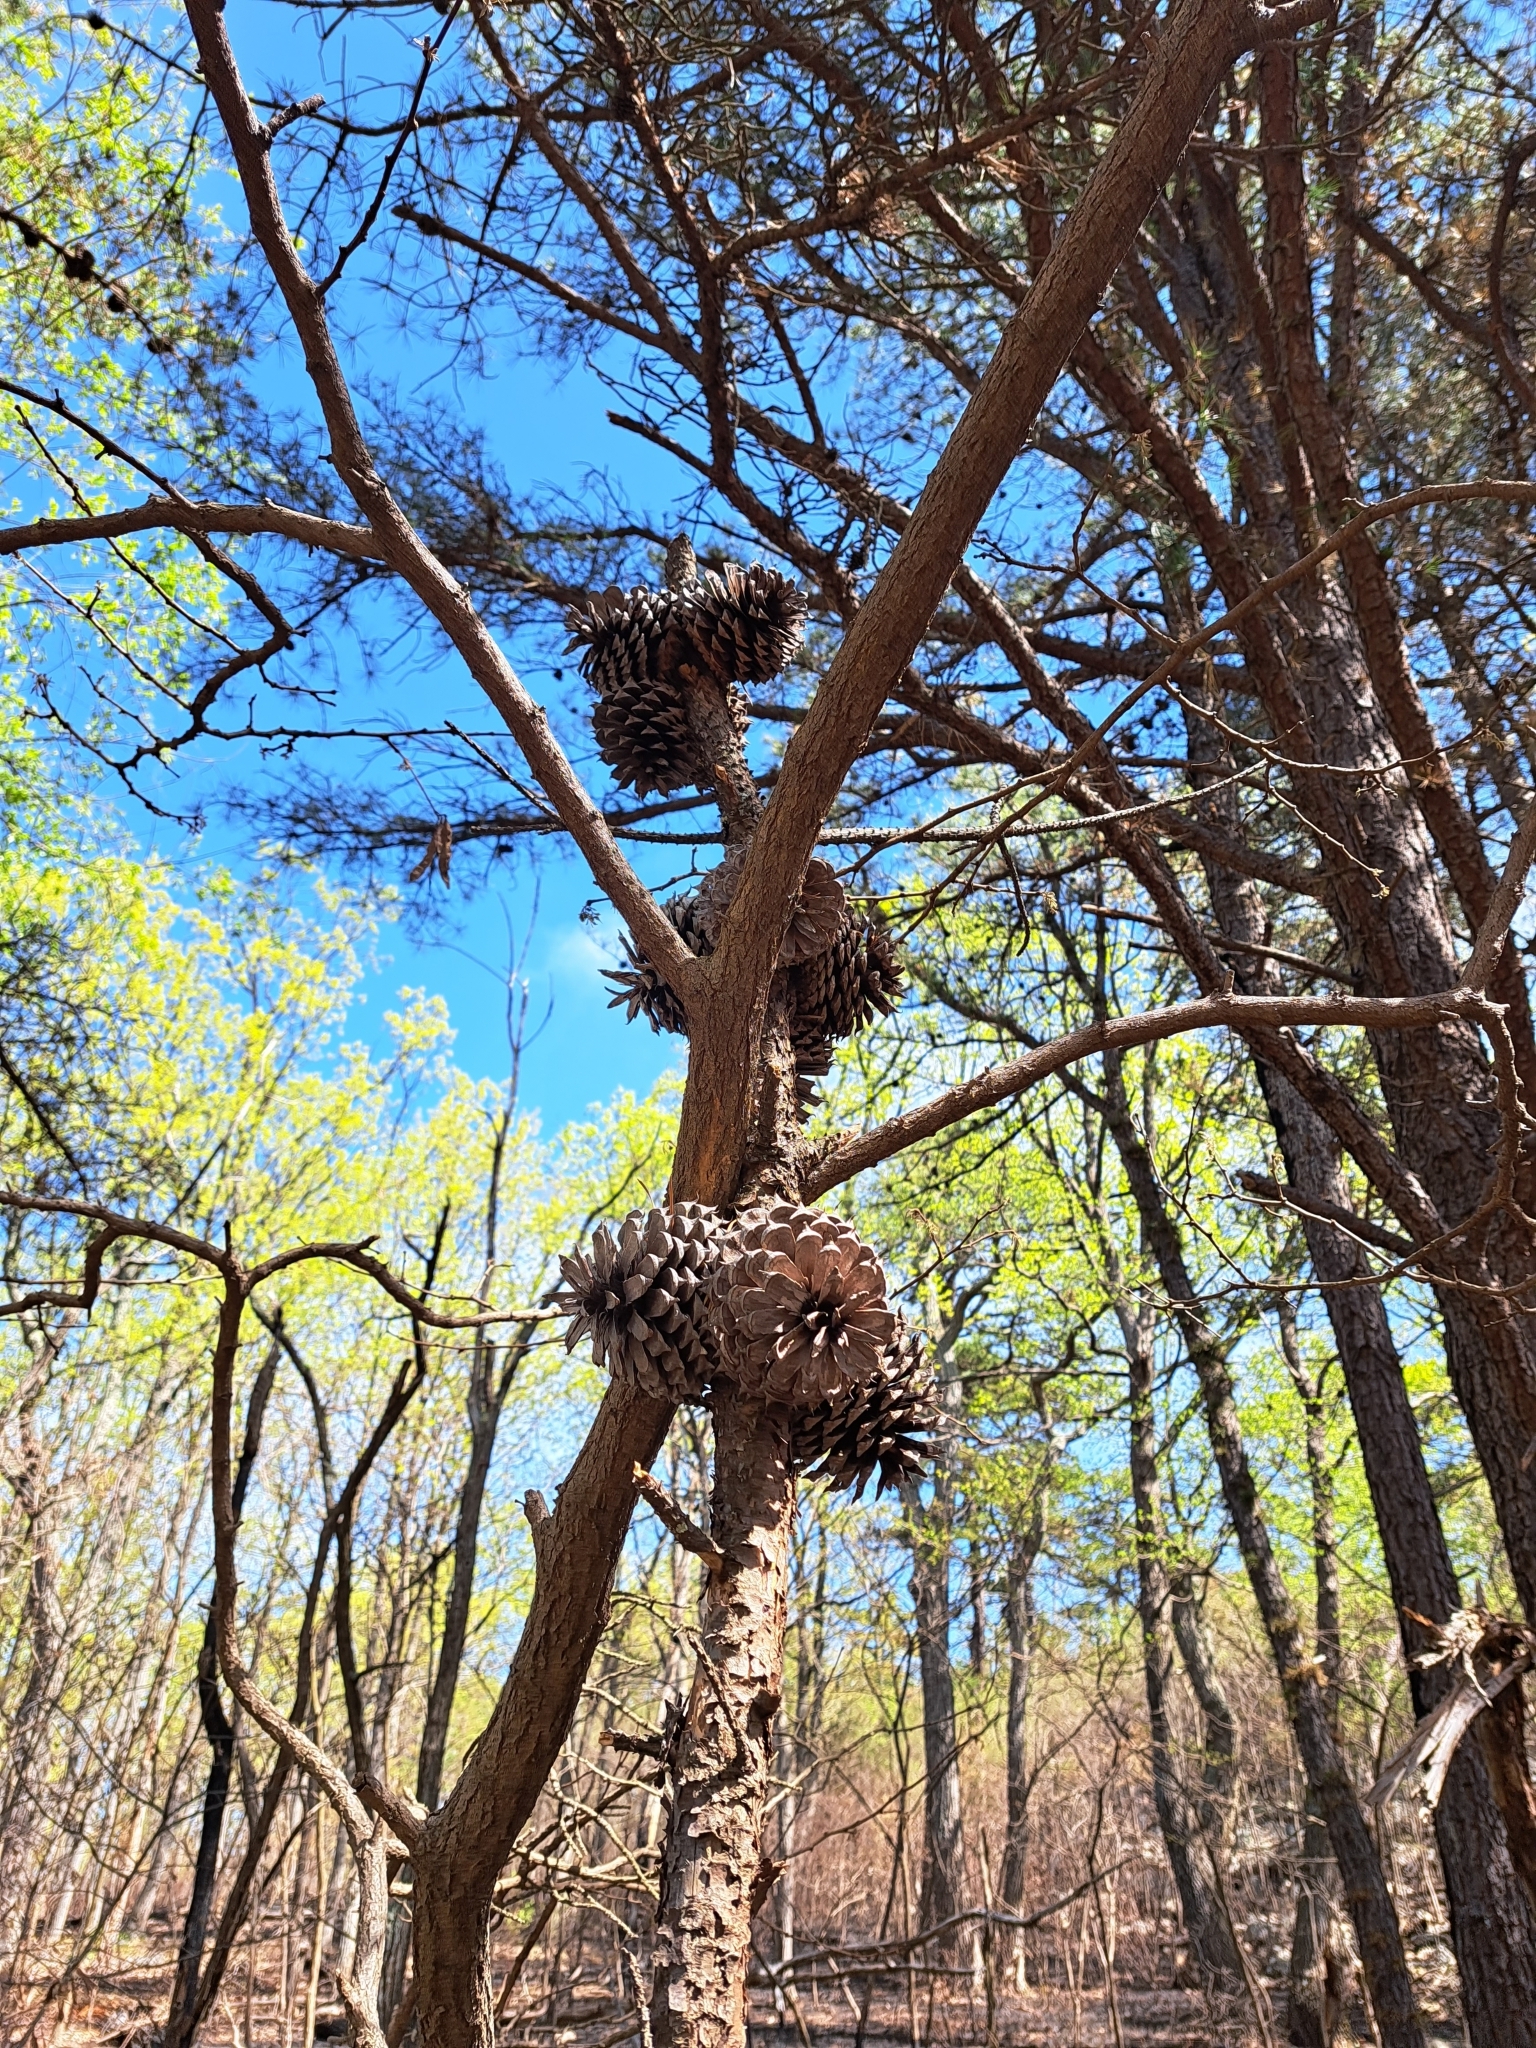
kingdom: Plantae
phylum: Tracheophyta
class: Pinopsida
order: Pinales
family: Pinaceae
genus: Pinus
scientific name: Pinus pungens
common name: Hickory pine
